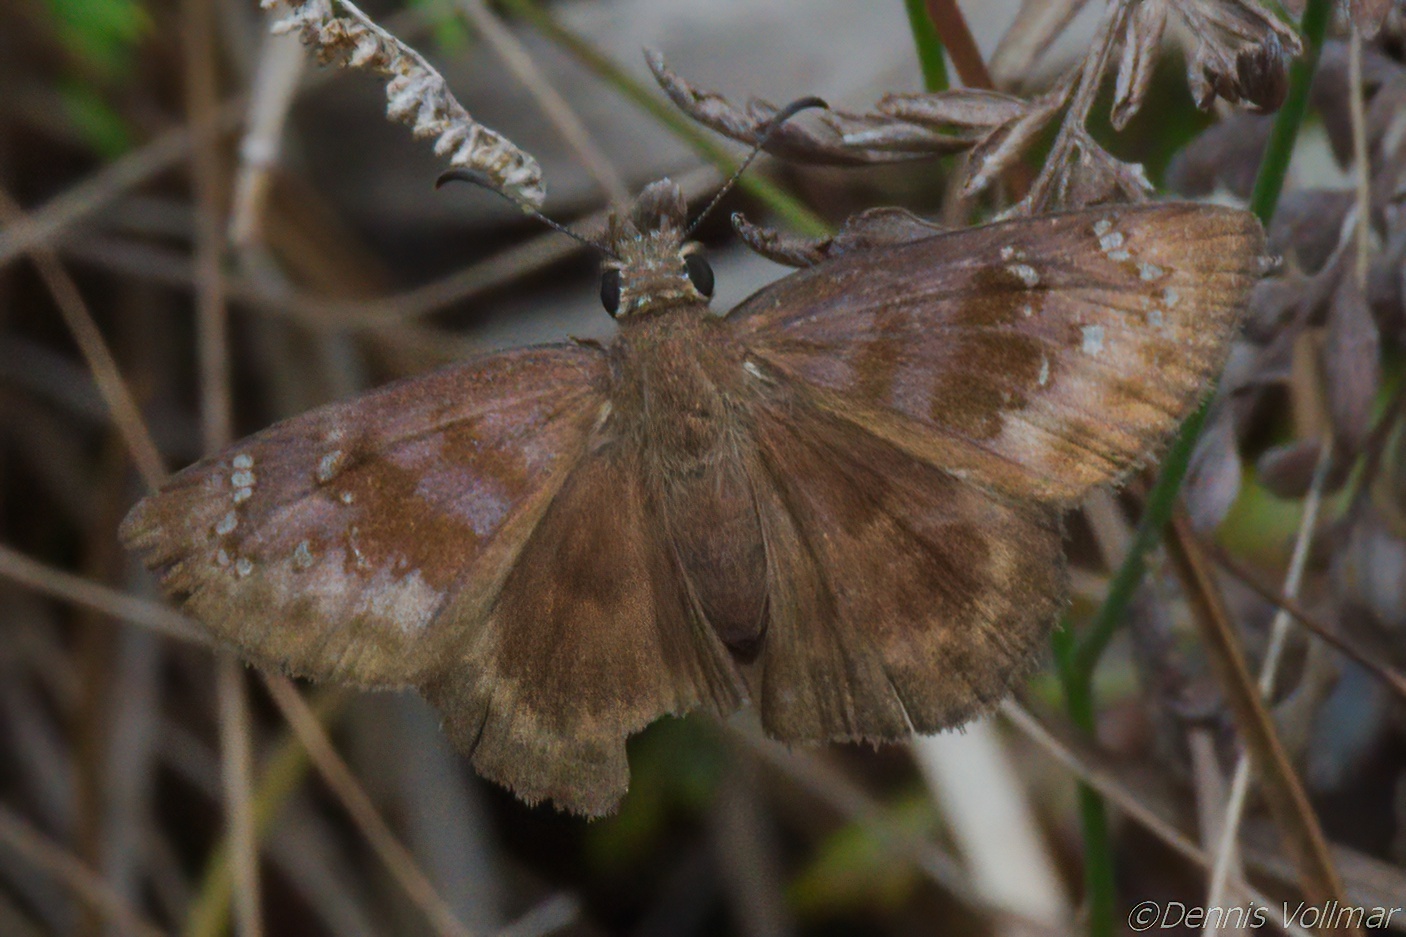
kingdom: Animalia
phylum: Arthropoda
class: Insecta
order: Lepidoptera
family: Hesperiidae
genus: Ephyriades
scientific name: Ephyriades brunnea
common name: Florida duskywing
